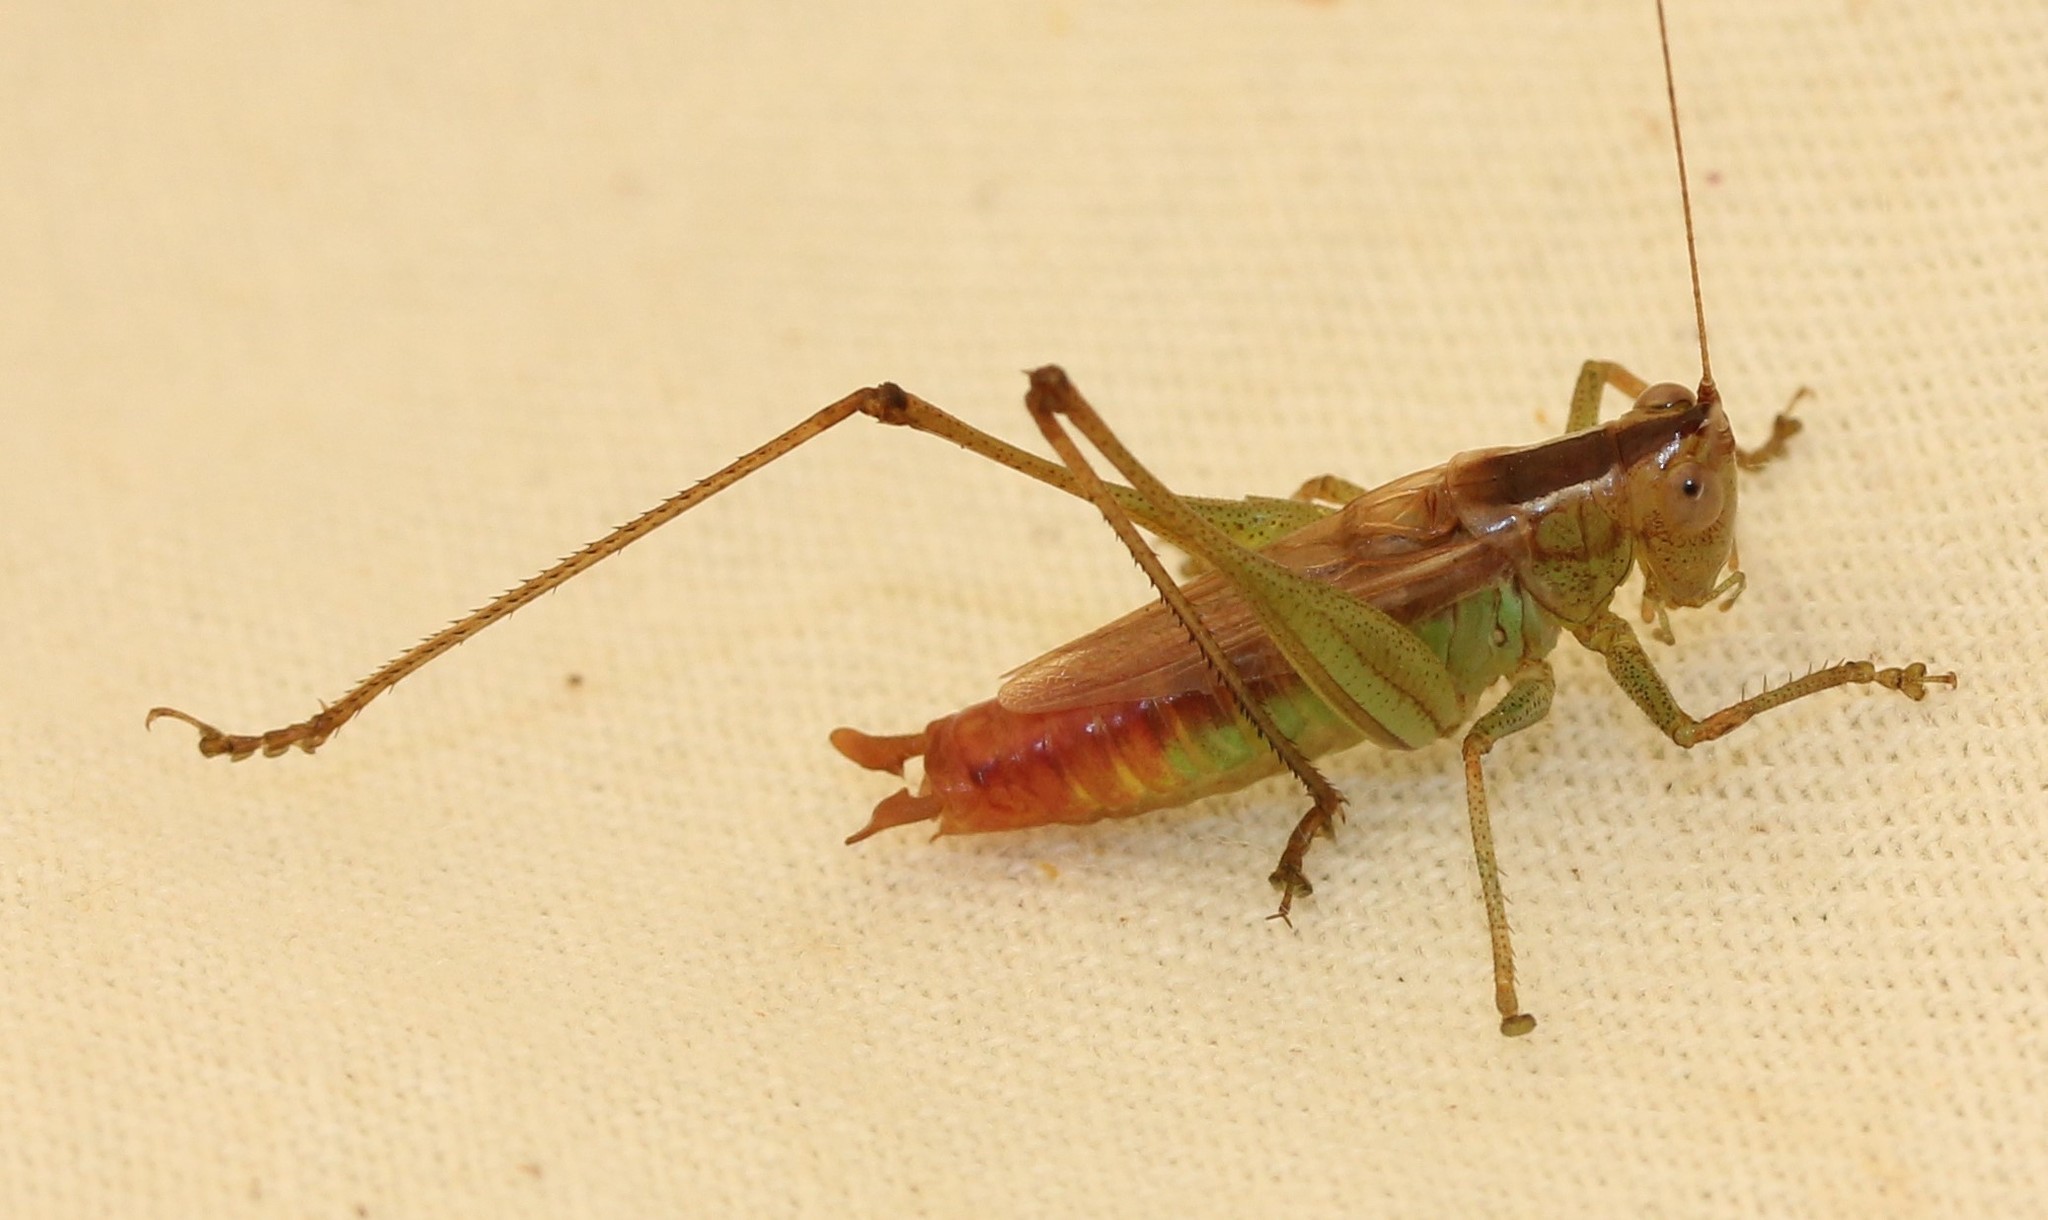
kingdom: Animalia
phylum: Arthropoda
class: Insecta
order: Orthoptera
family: Tettigoniidae
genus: Conocephalus
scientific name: Conocephalus brevipennis
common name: Short-winged meadow katydid
